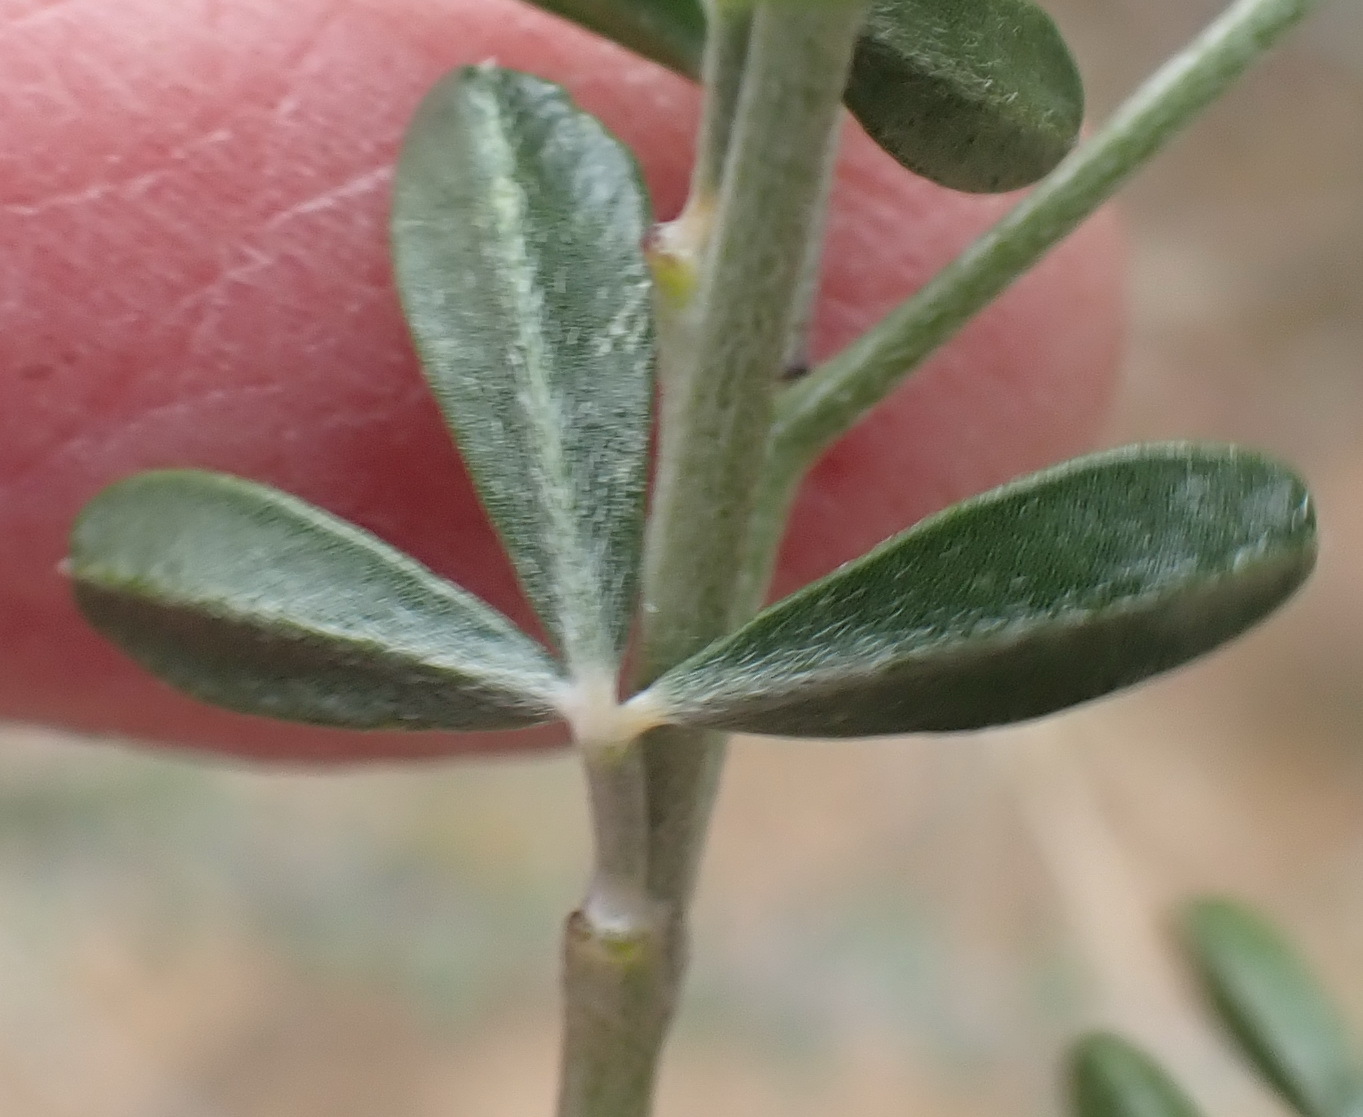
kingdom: Plantae
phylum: Tracheophyta
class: Magnoliopsida
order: Fabales
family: Fabaceae
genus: Wiborgia
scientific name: Wiborgia obcordata
